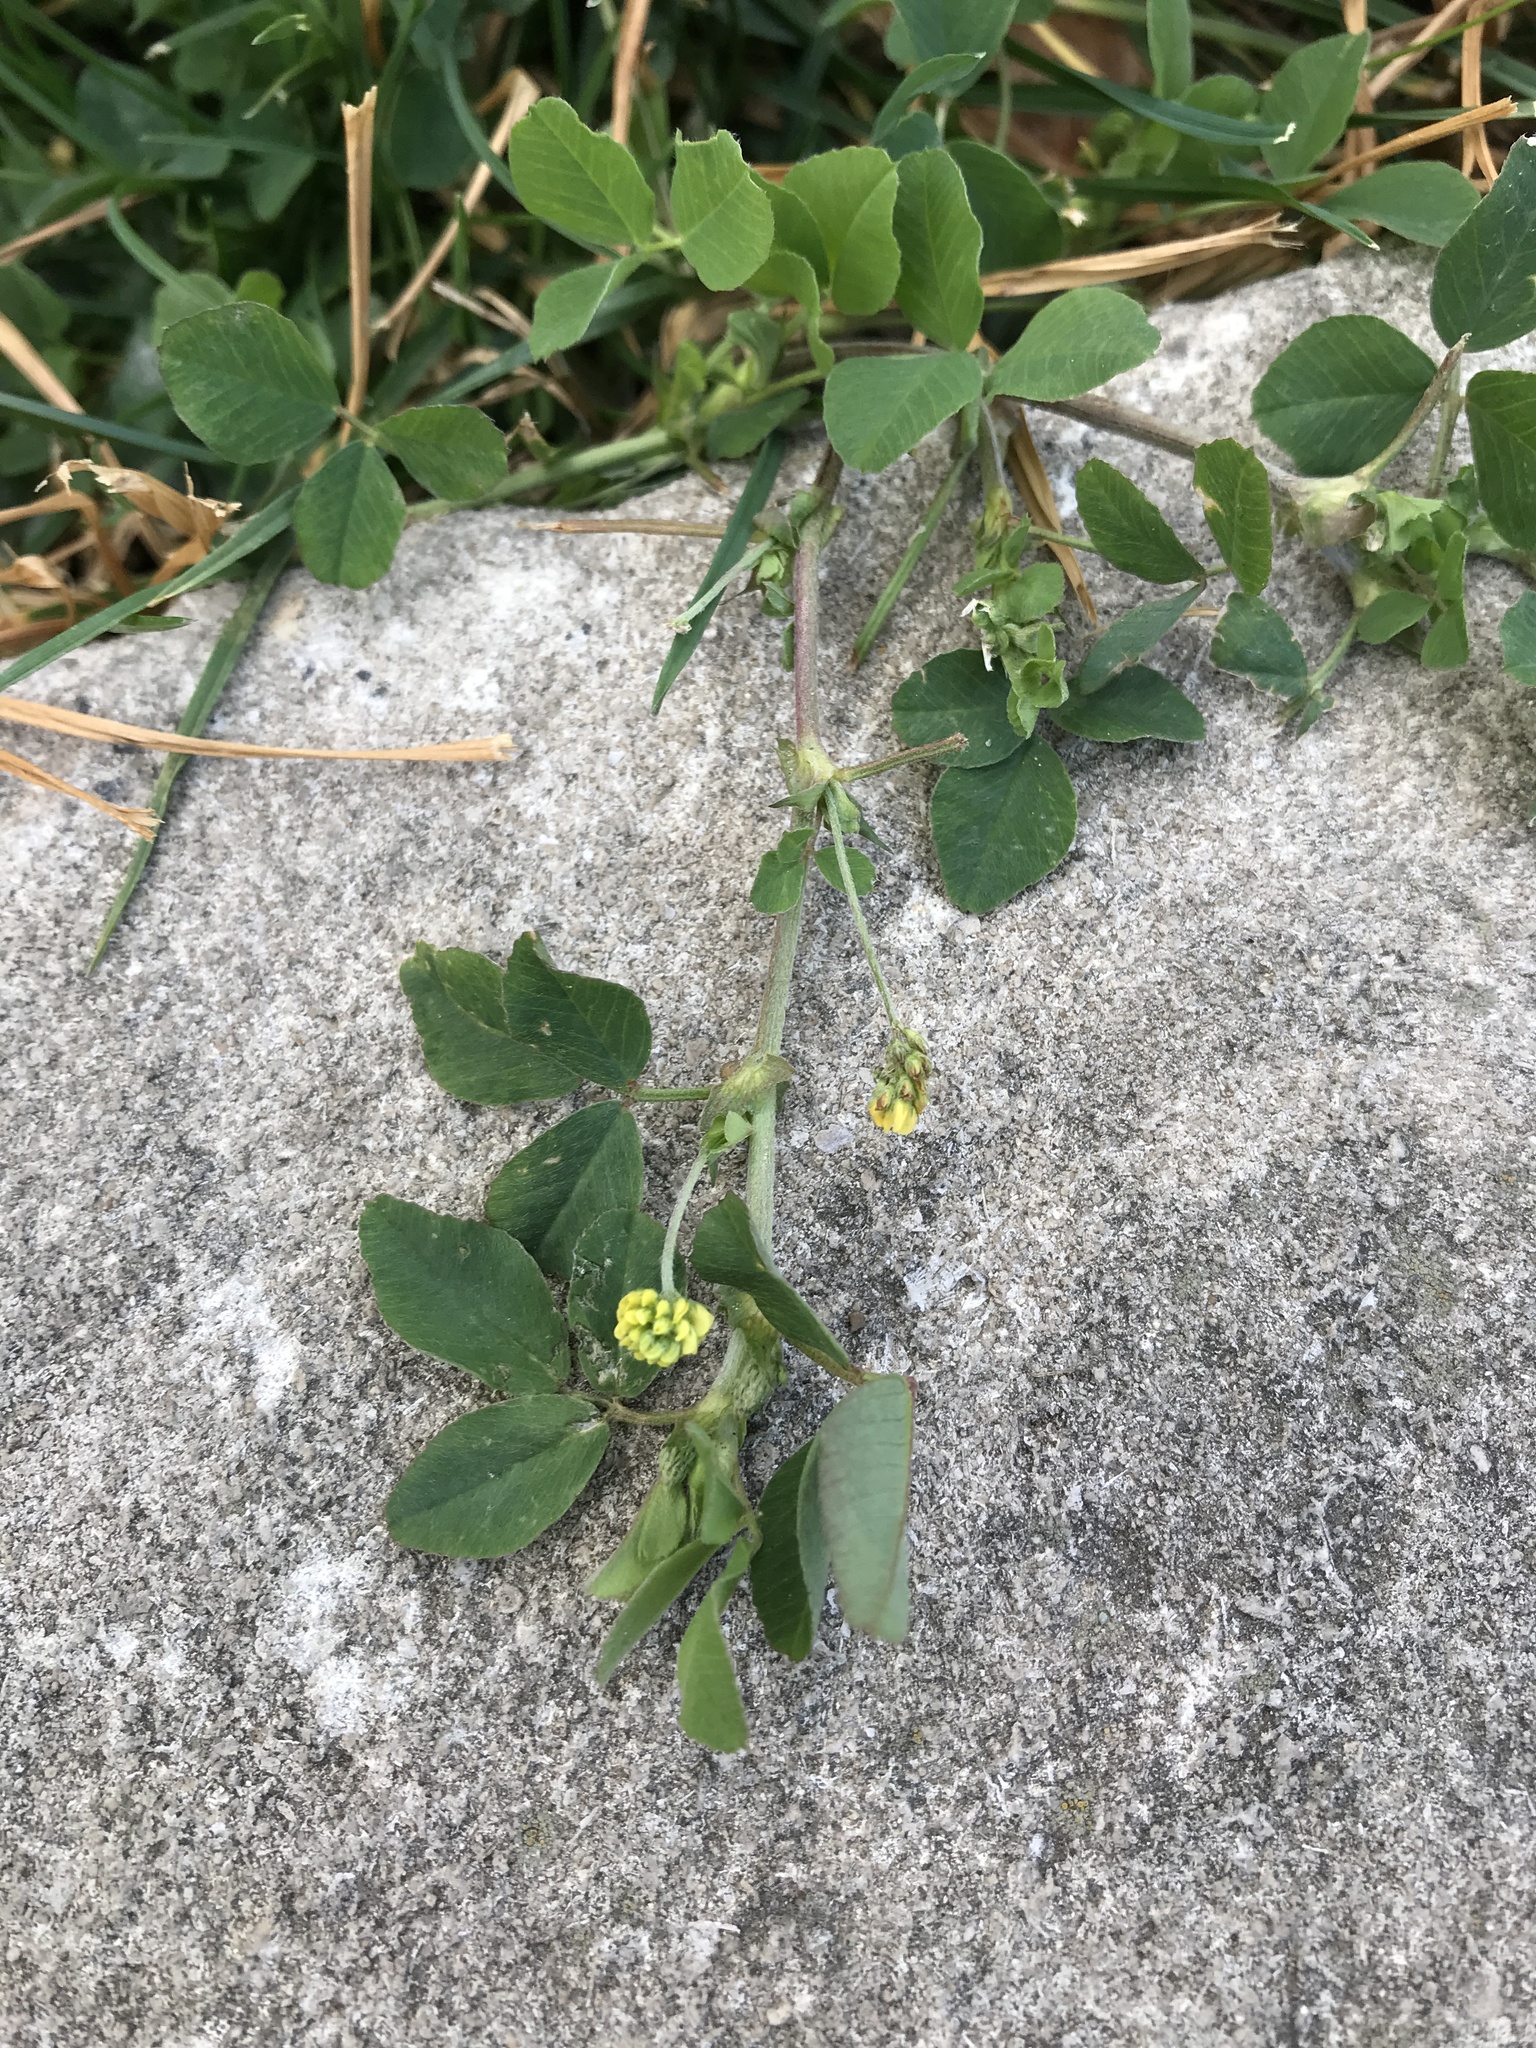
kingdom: Plantae
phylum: Tracheophyta
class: Magnoliopsida
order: Fabales
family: Fabaceae
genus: Medicago
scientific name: Medicago lupulina
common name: Black medick
